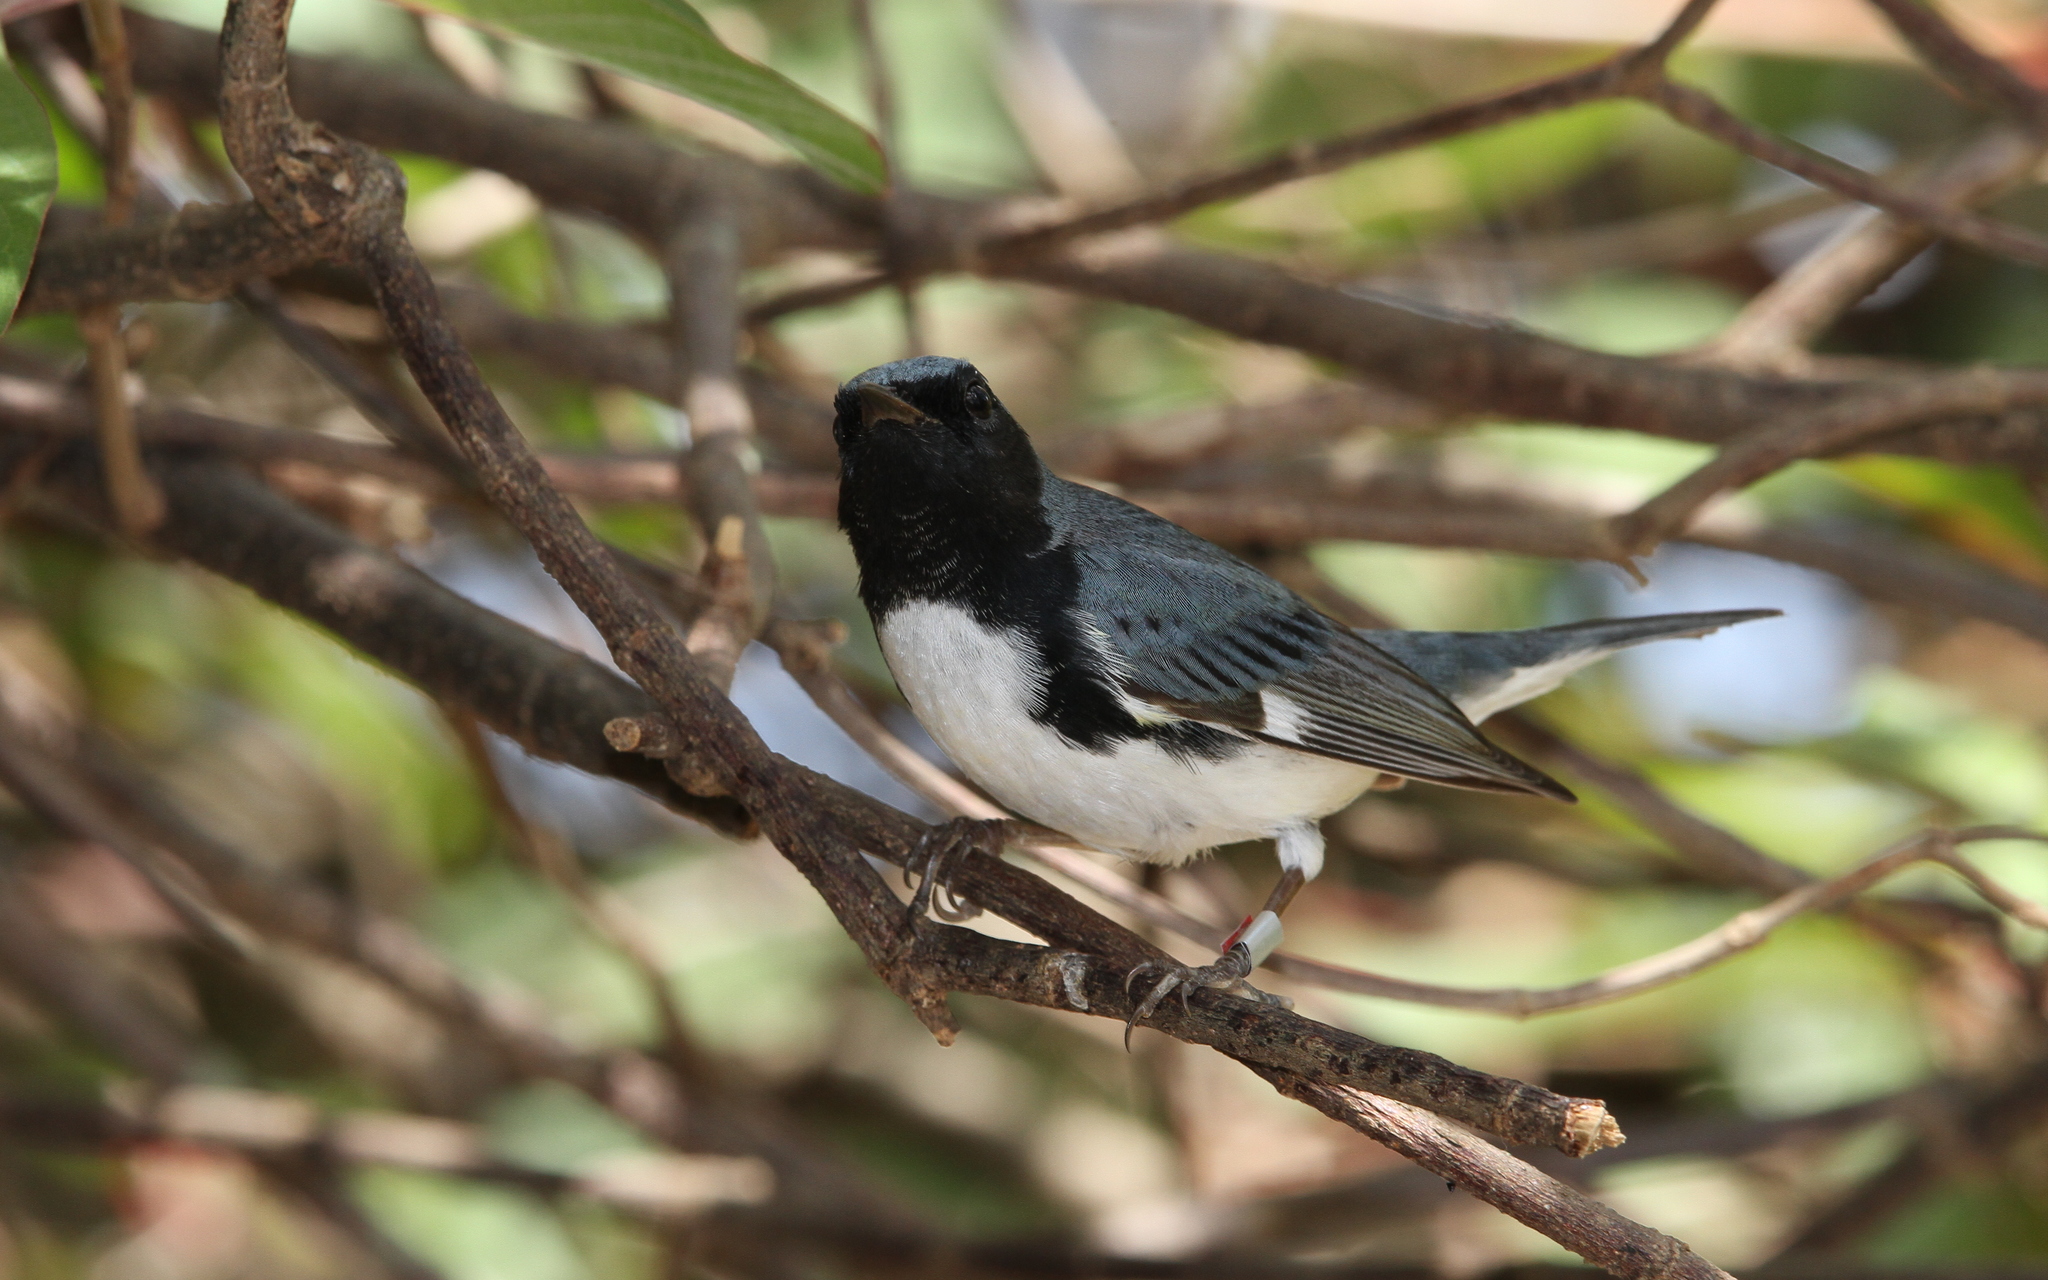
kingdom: Animalia
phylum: Chordata
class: Aves
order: Passeriformes
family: Icteridae
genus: Icterus
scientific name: Icterus dominicensis
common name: Hispaniolan oriole
